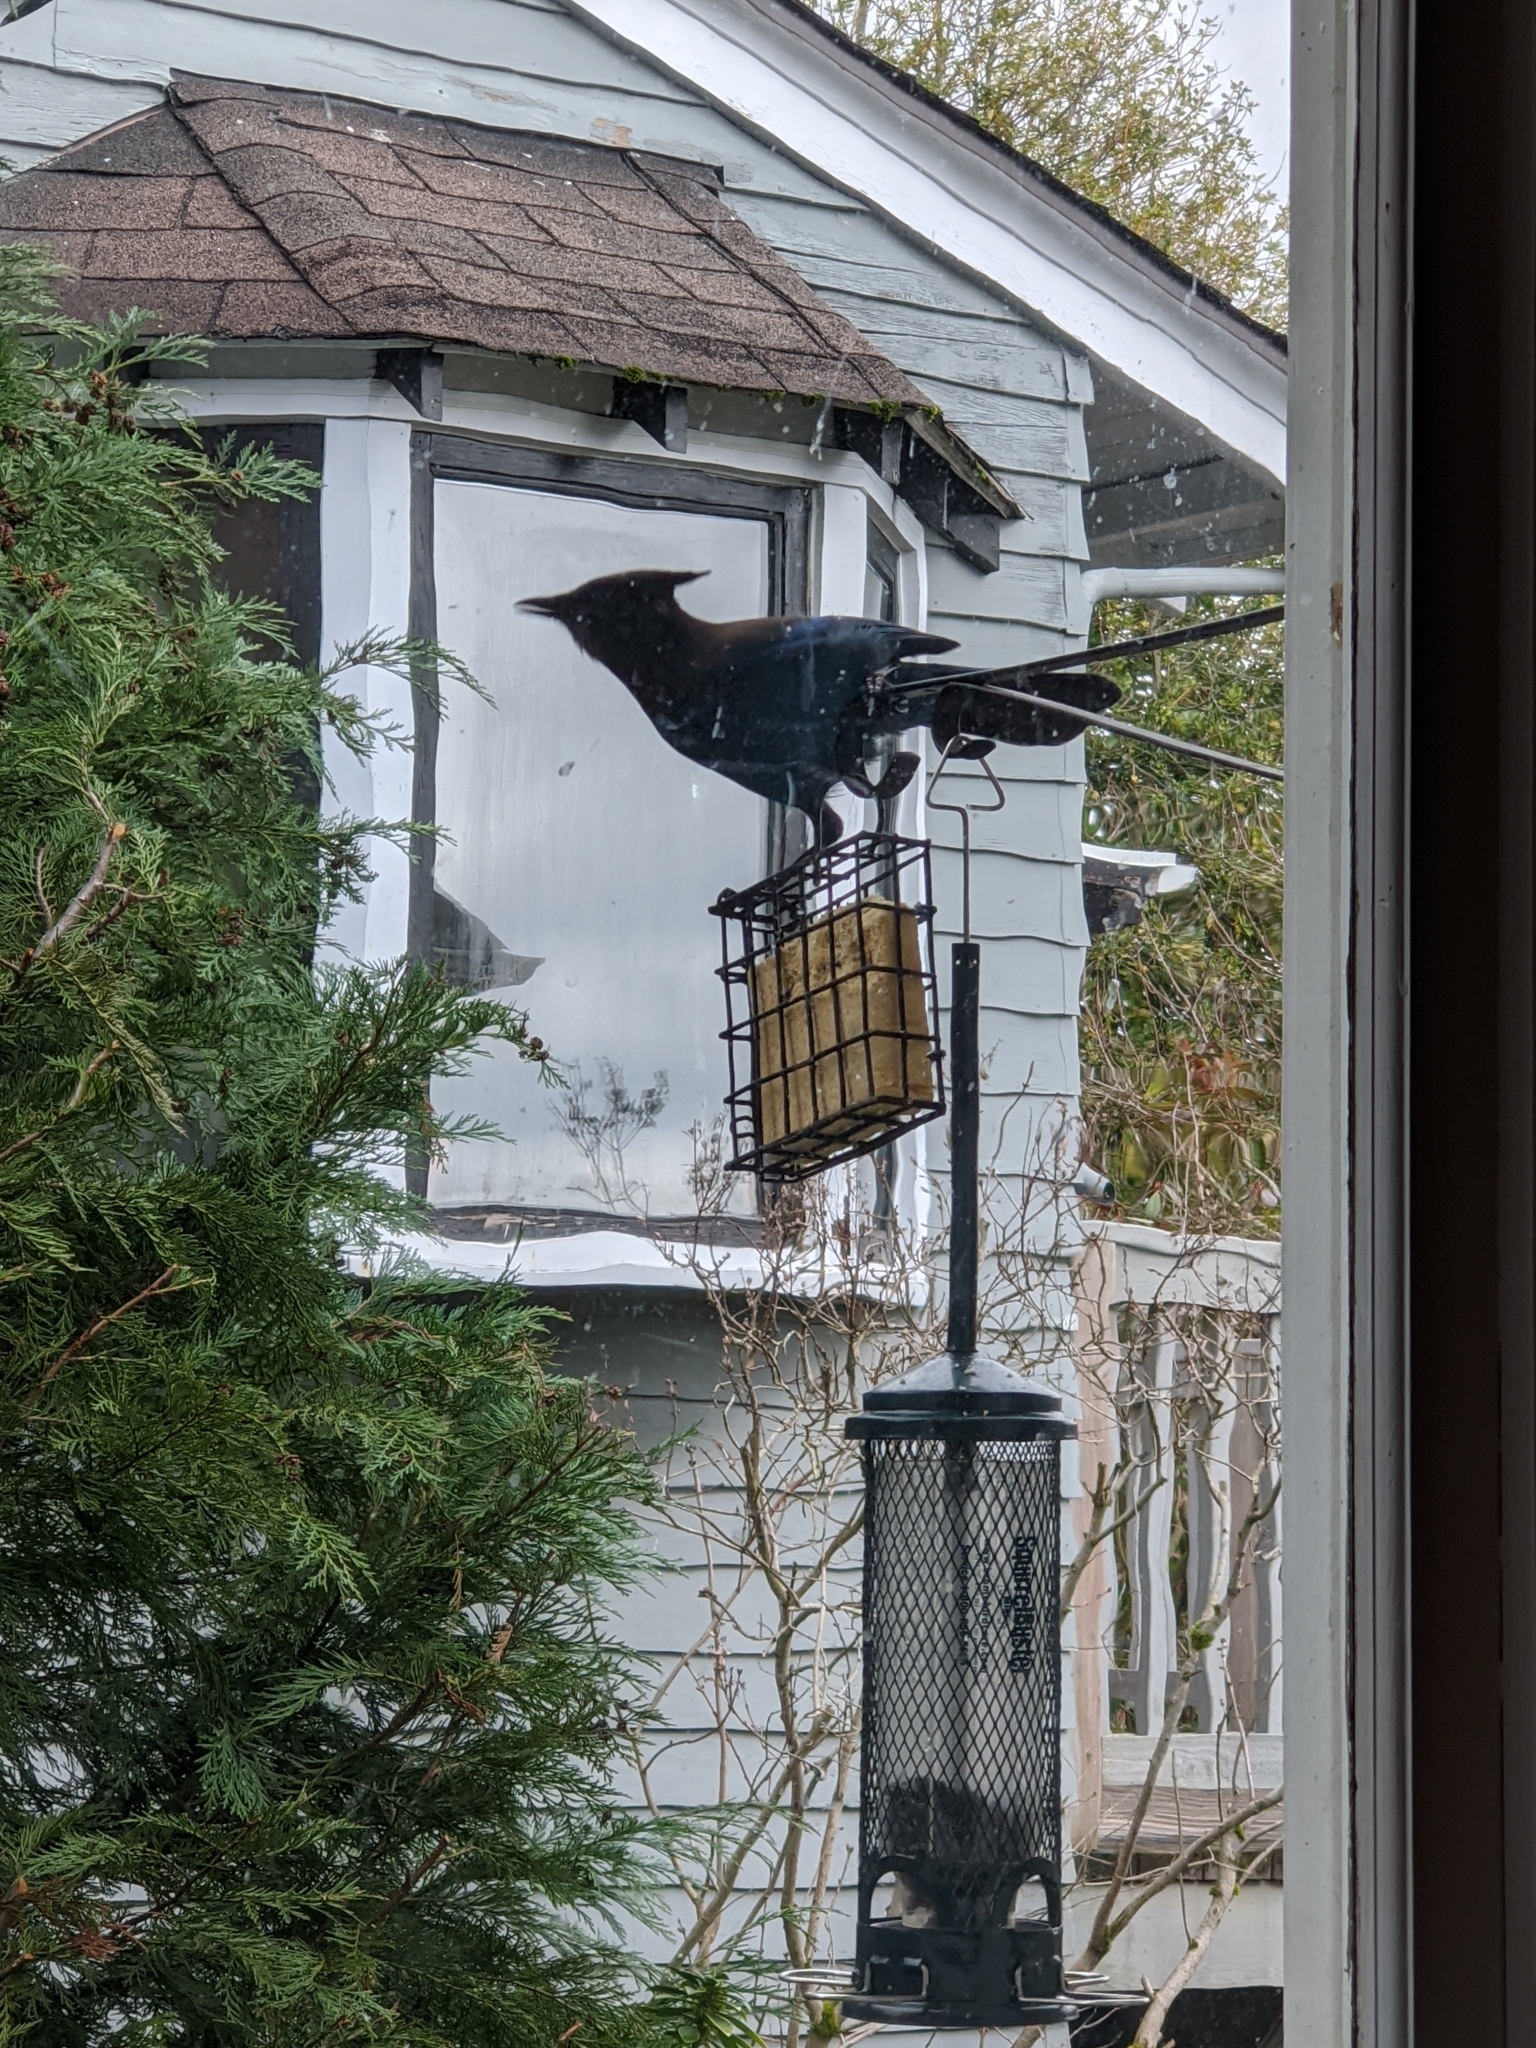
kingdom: Animalia
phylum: Chordata
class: Aves
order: Passeriformes
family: Corvidae
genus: Cyanocitta
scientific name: Cyanocitta stelleri
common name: Steller's jay
